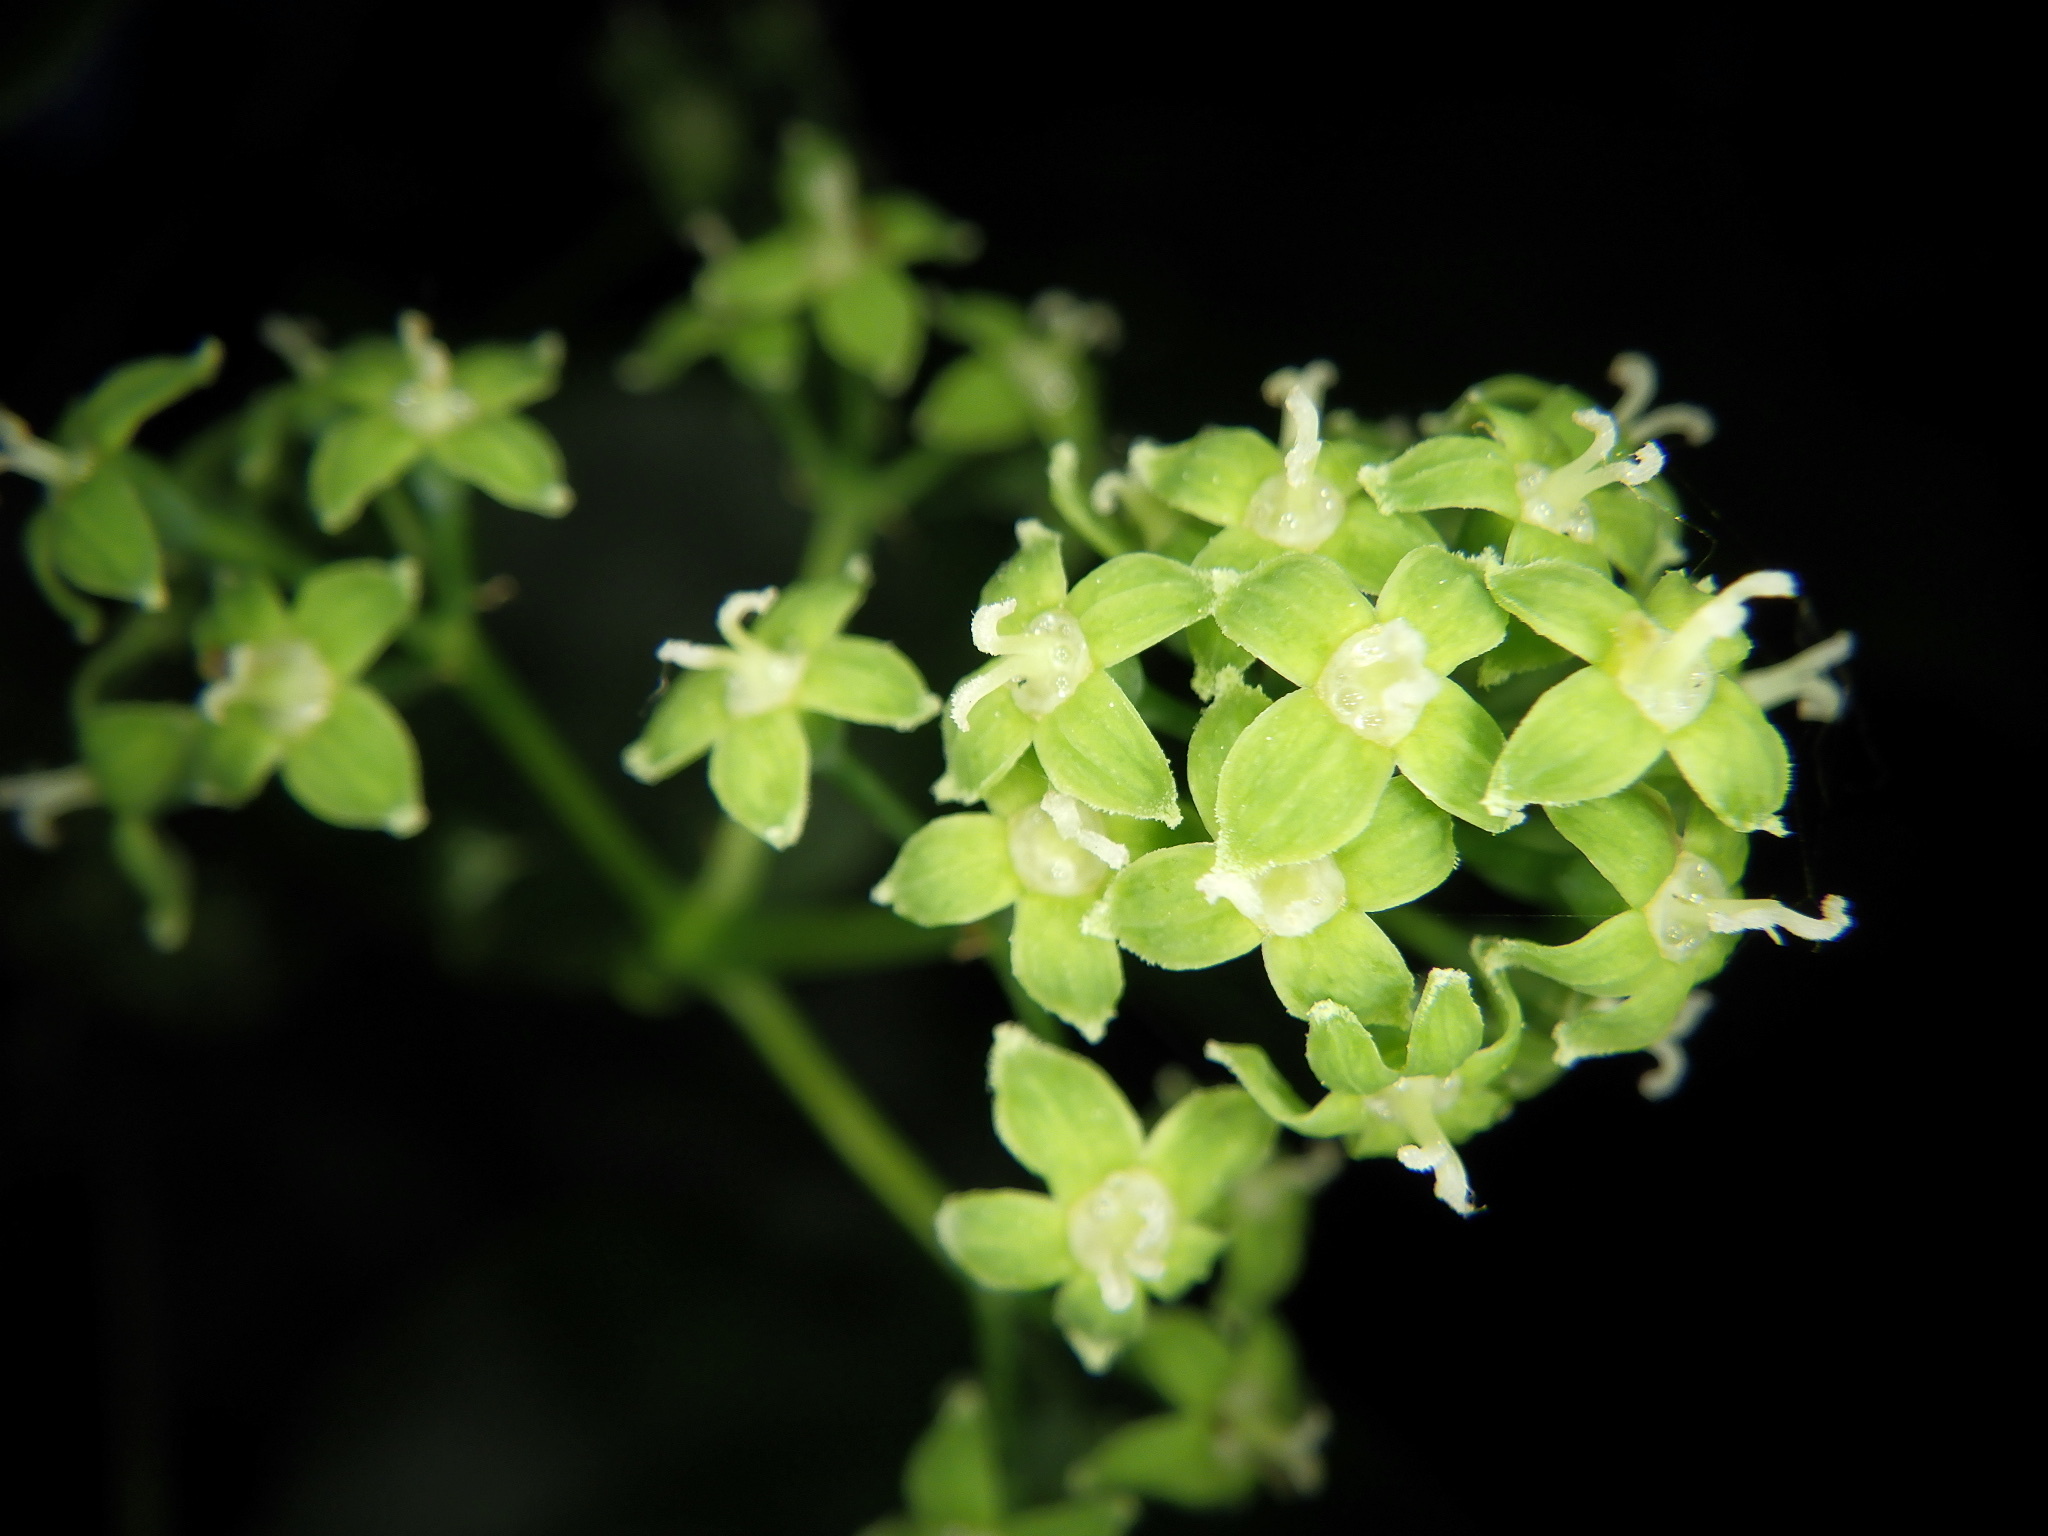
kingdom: Plantae
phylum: Tracheophyta
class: Magnoliopsida
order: Apiales
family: Araliaceae
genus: Gamblea
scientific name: Gamblea innovans
